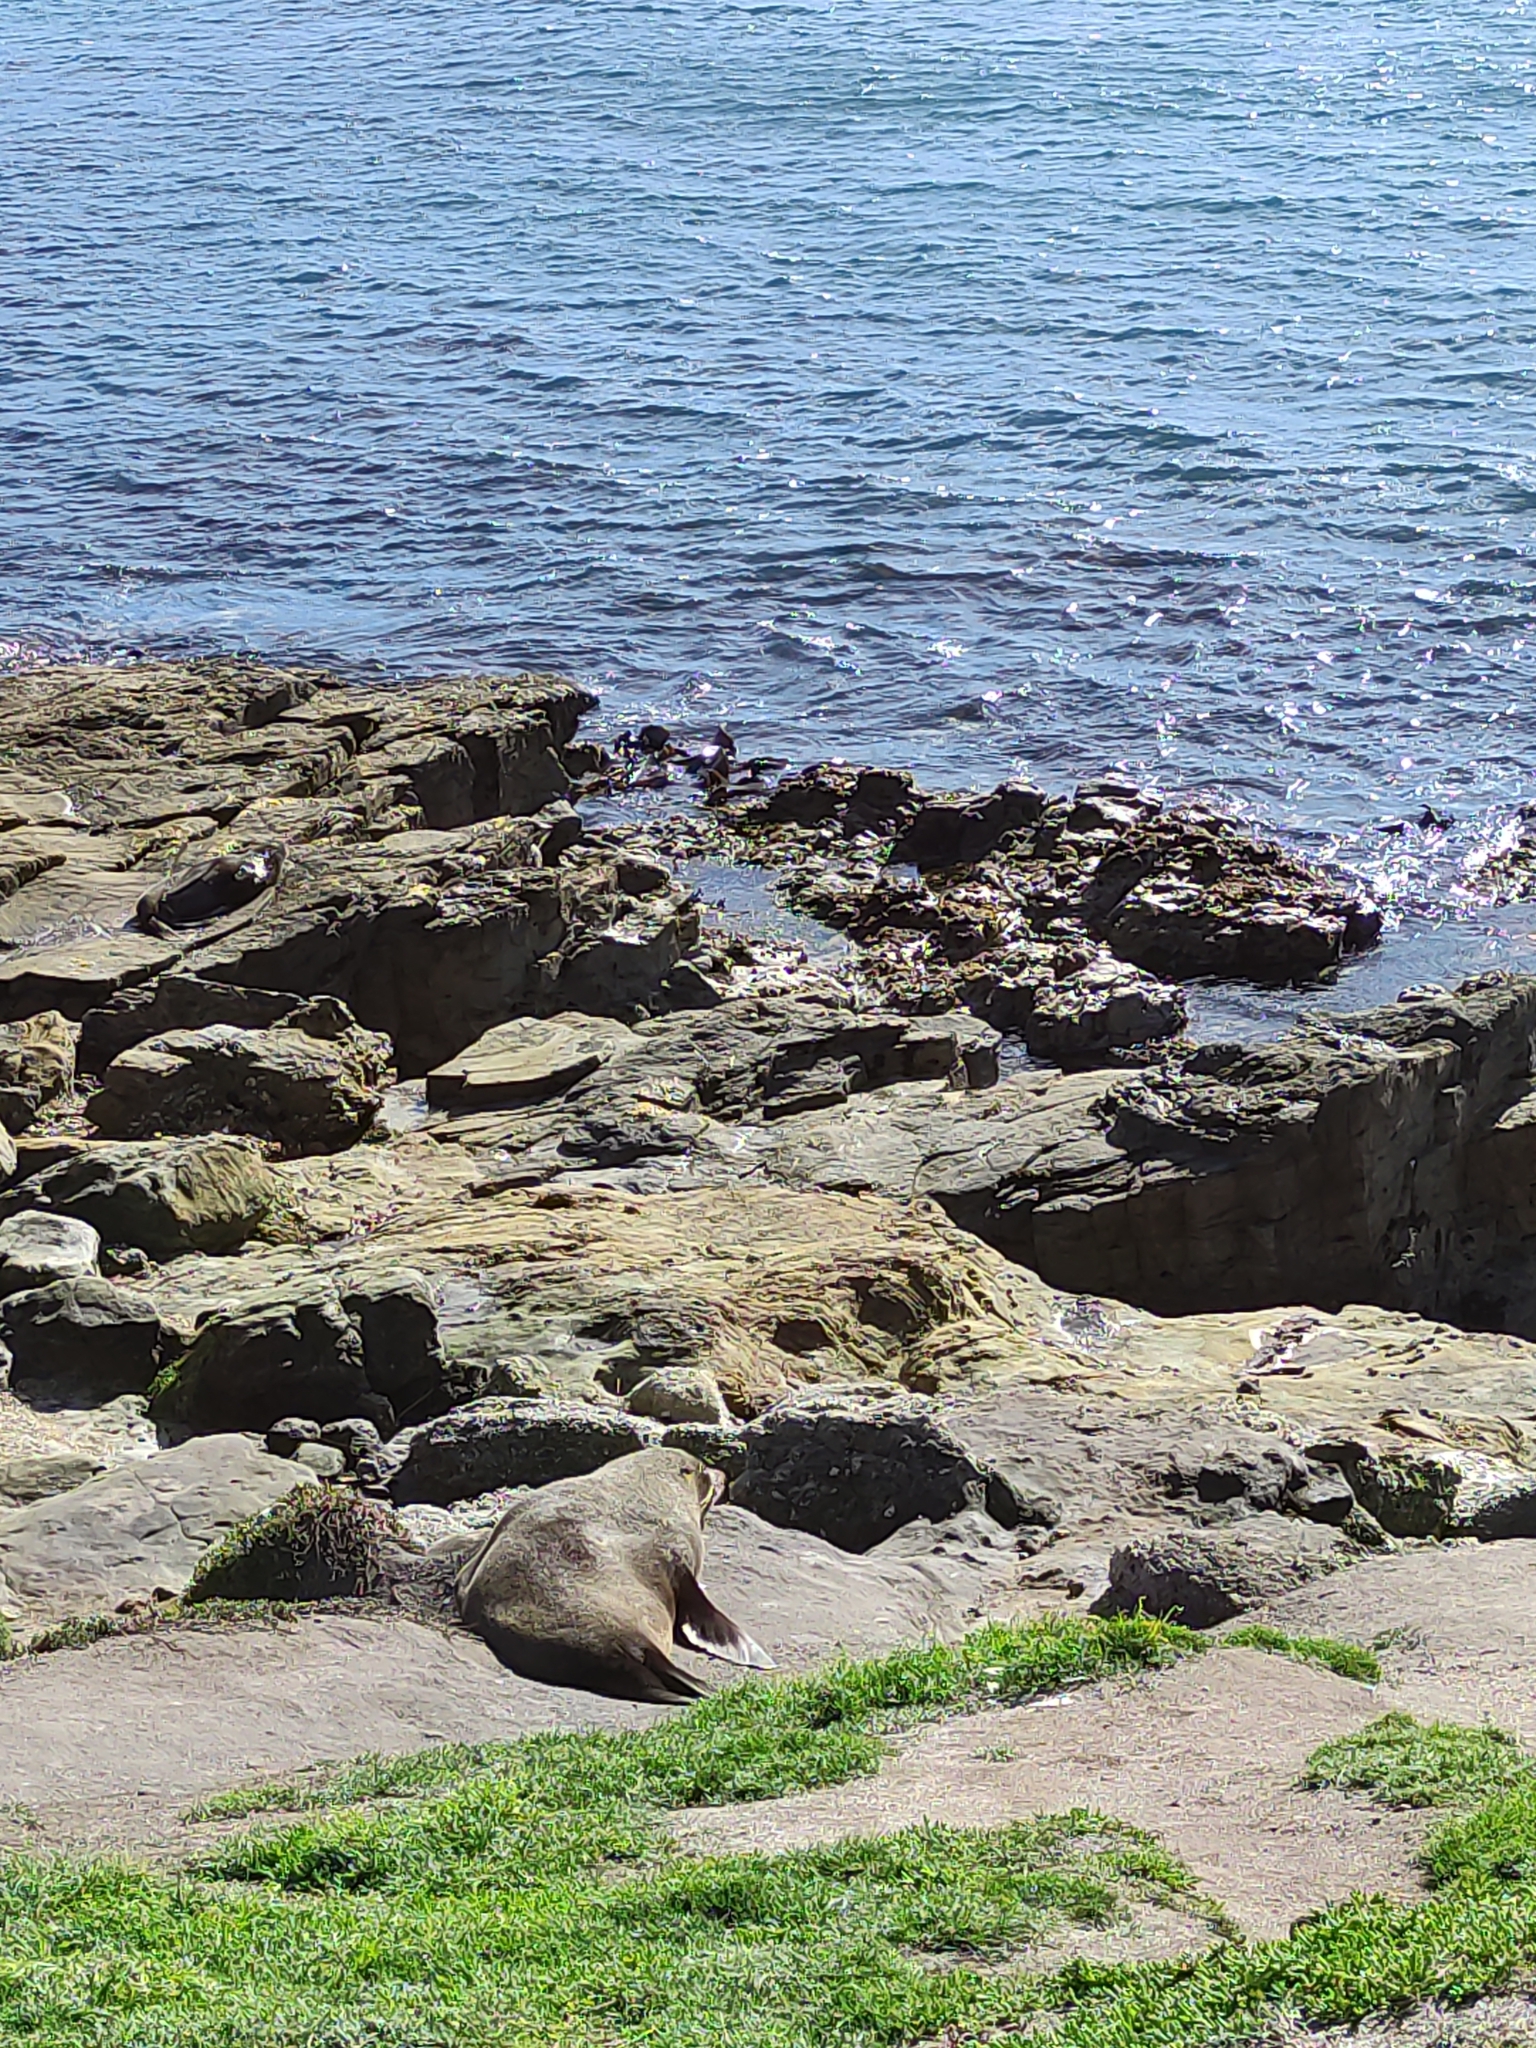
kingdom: Animalia
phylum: Chordata
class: Mammalia
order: Carnivora
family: Otariidae
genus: Arctocephalus
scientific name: Arctocephalus forsteri
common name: New zealand fur seal
